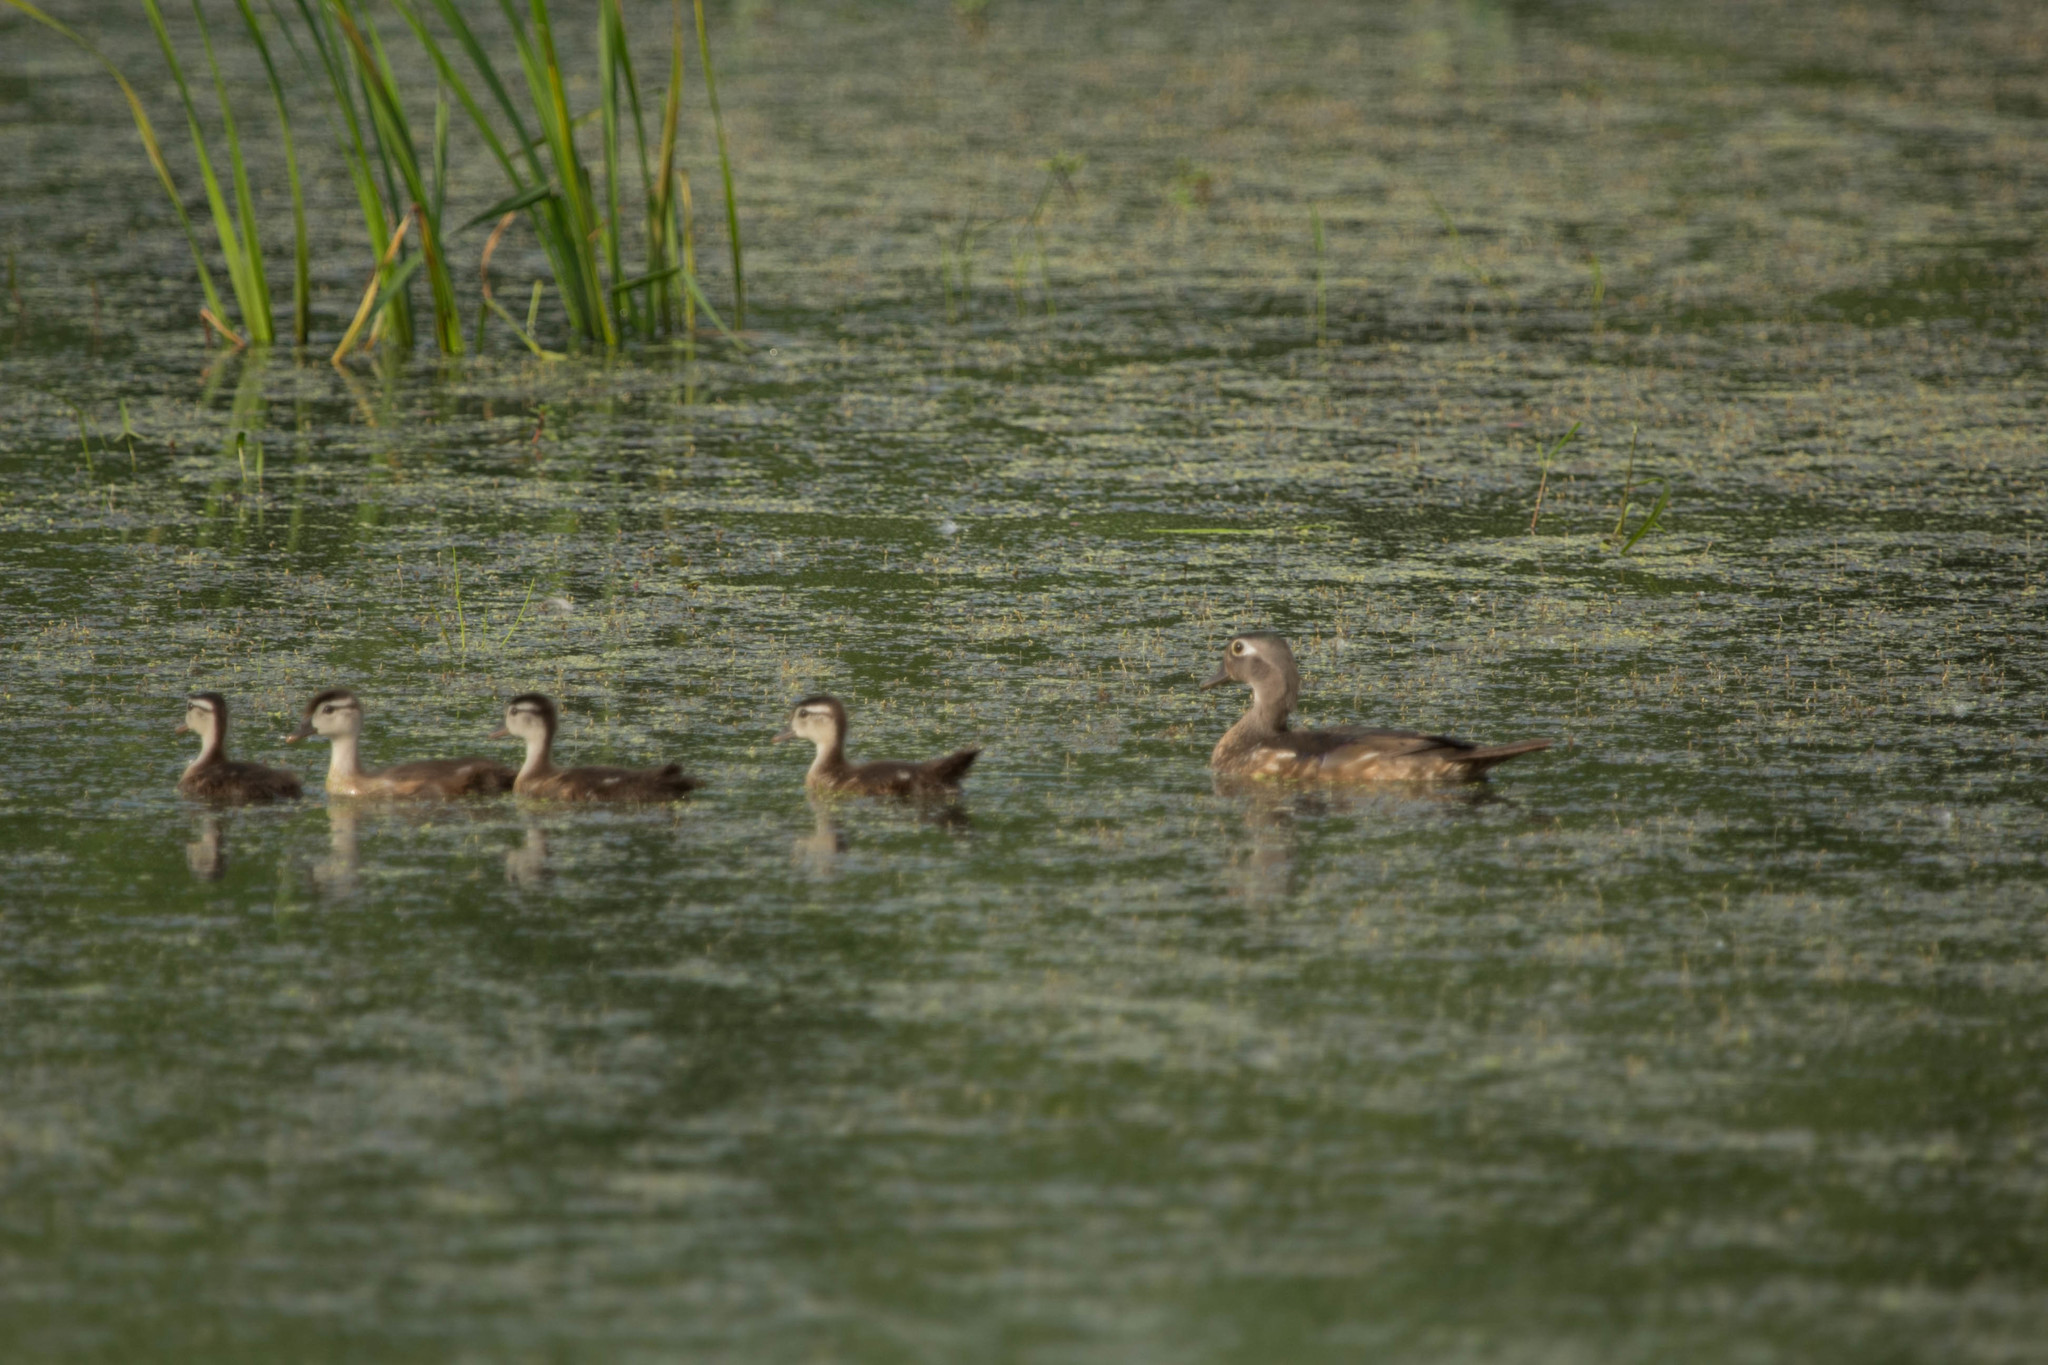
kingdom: Animalia
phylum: Chordata
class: Aves
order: Anseriformes
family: Anatidae
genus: Aix
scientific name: Aix sponsa
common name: Wood duck
